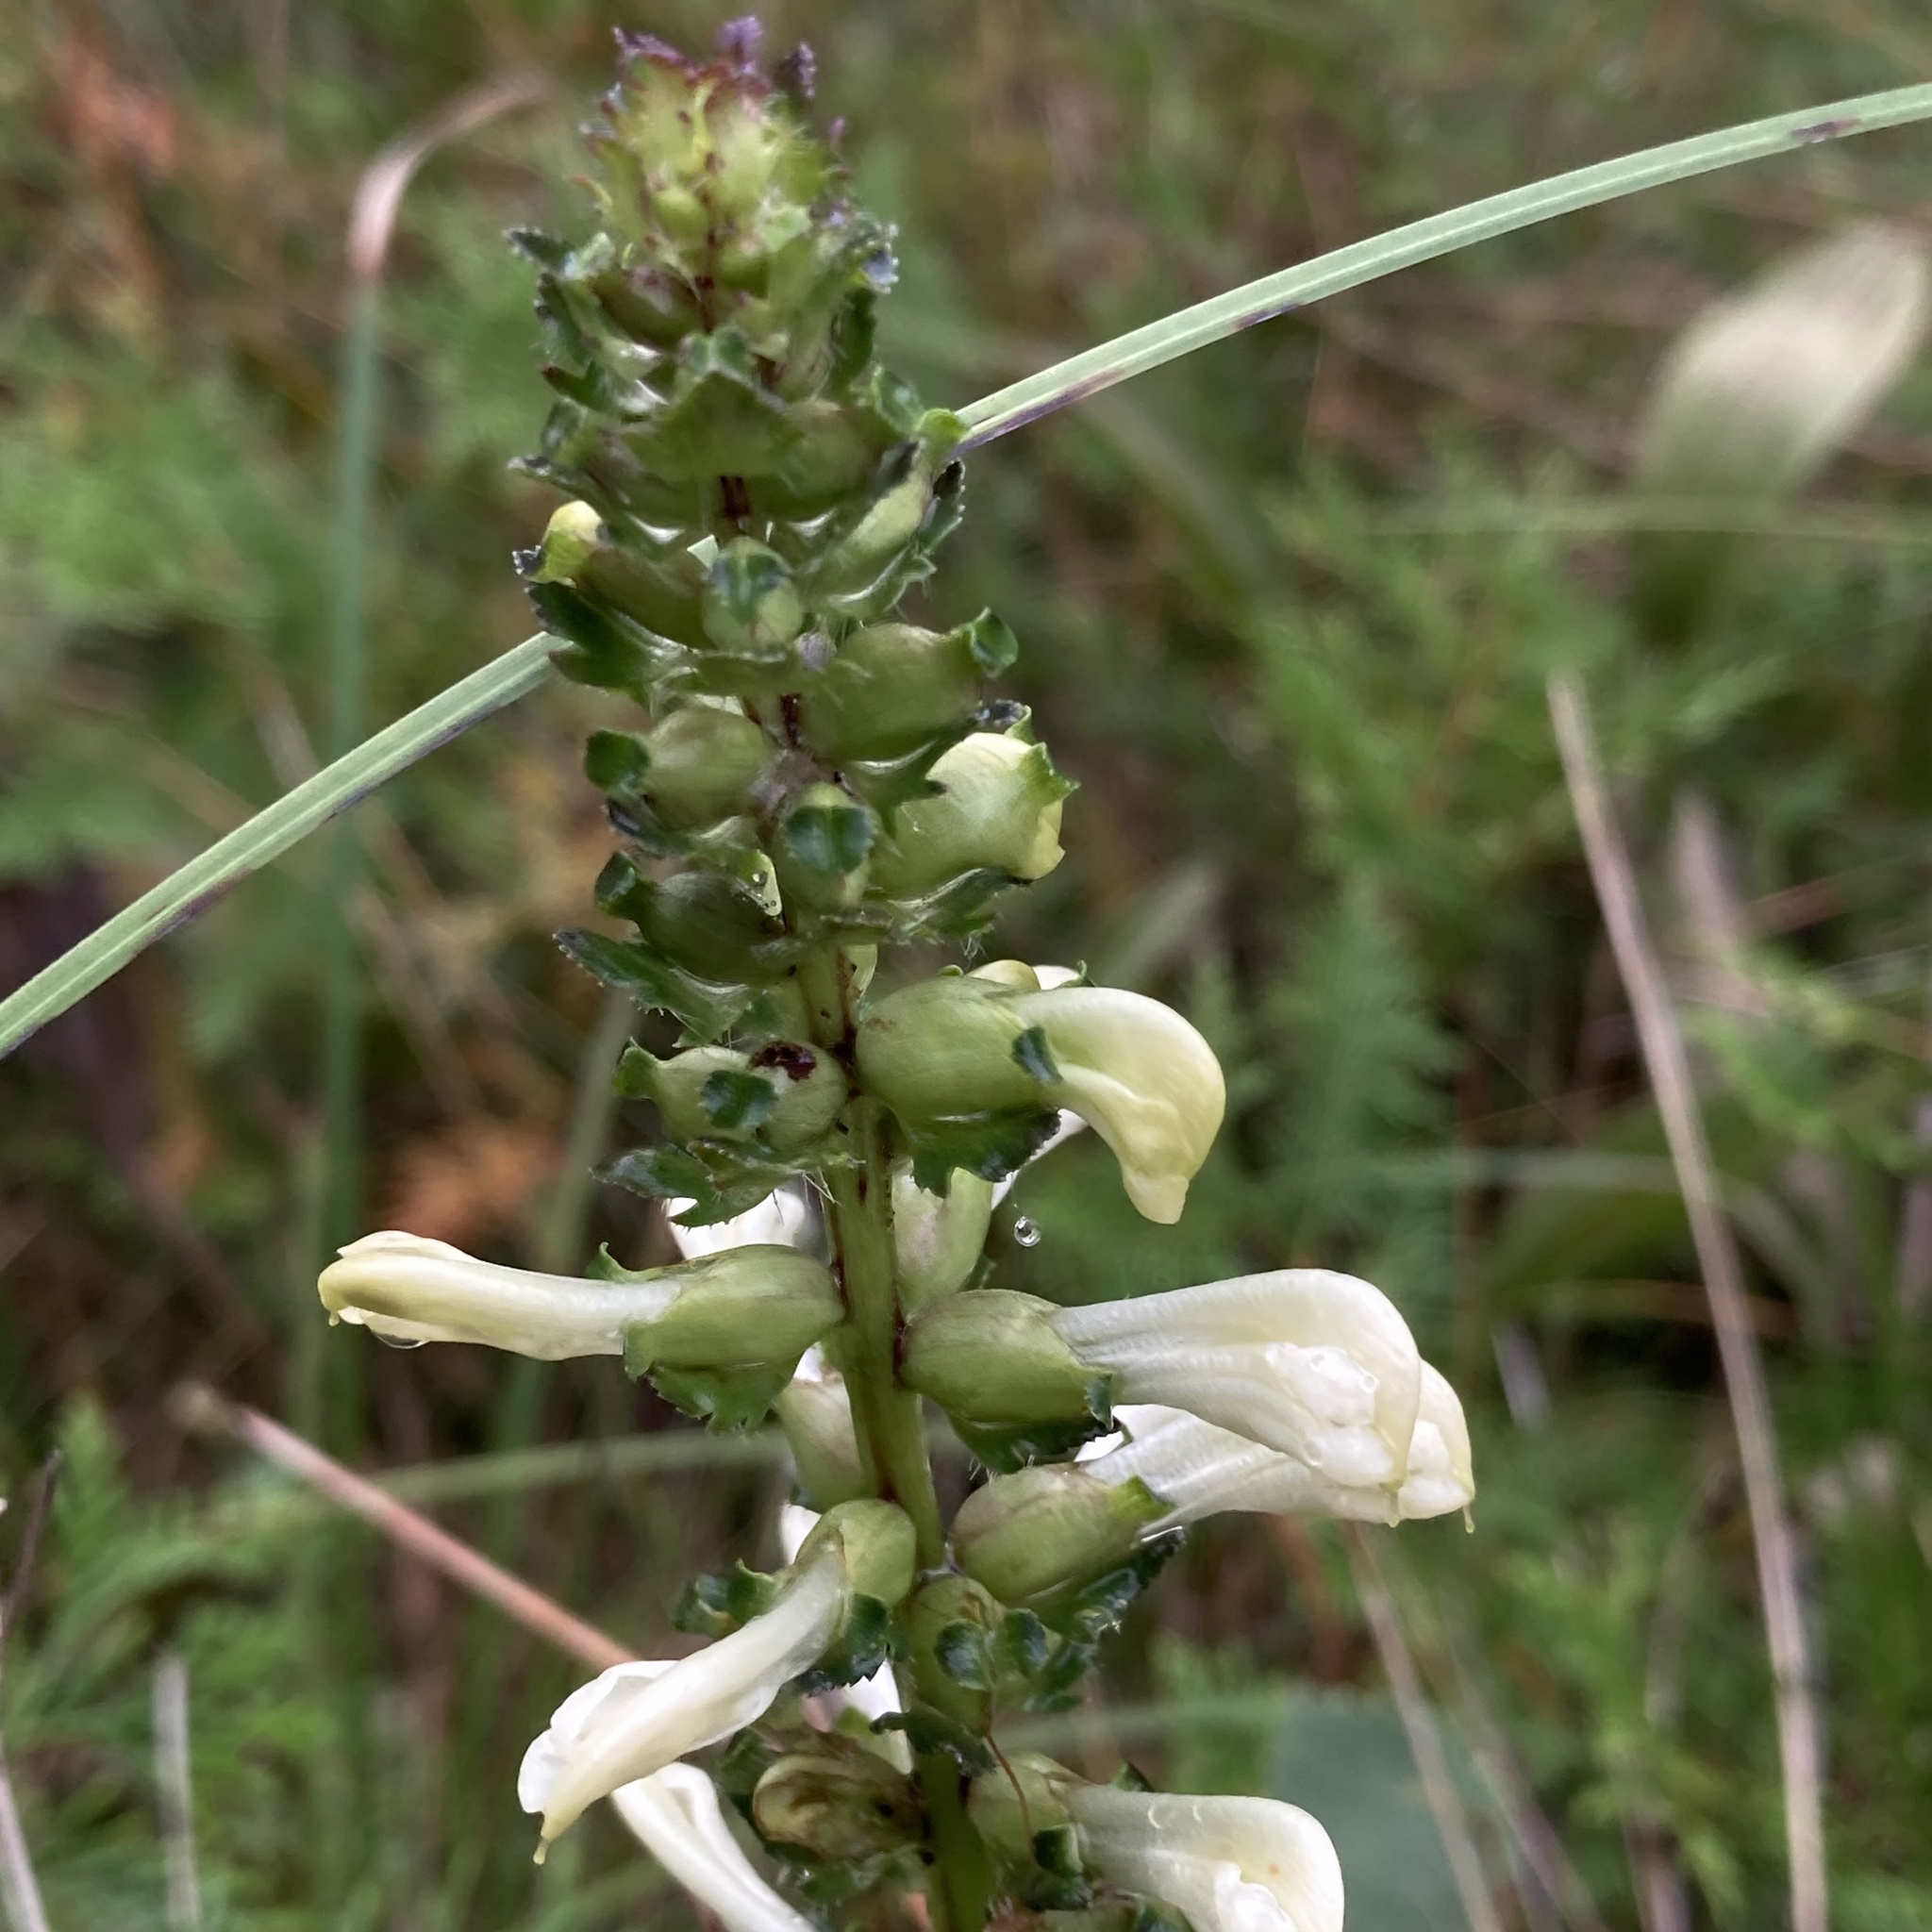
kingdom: Plantae
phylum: Tracheophyta
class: Magnoliopsida
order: Lamiales
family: Orobanchaceae
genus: Pedicularis
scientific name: Pedicularis lanceolata
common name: Swamp lousewort
